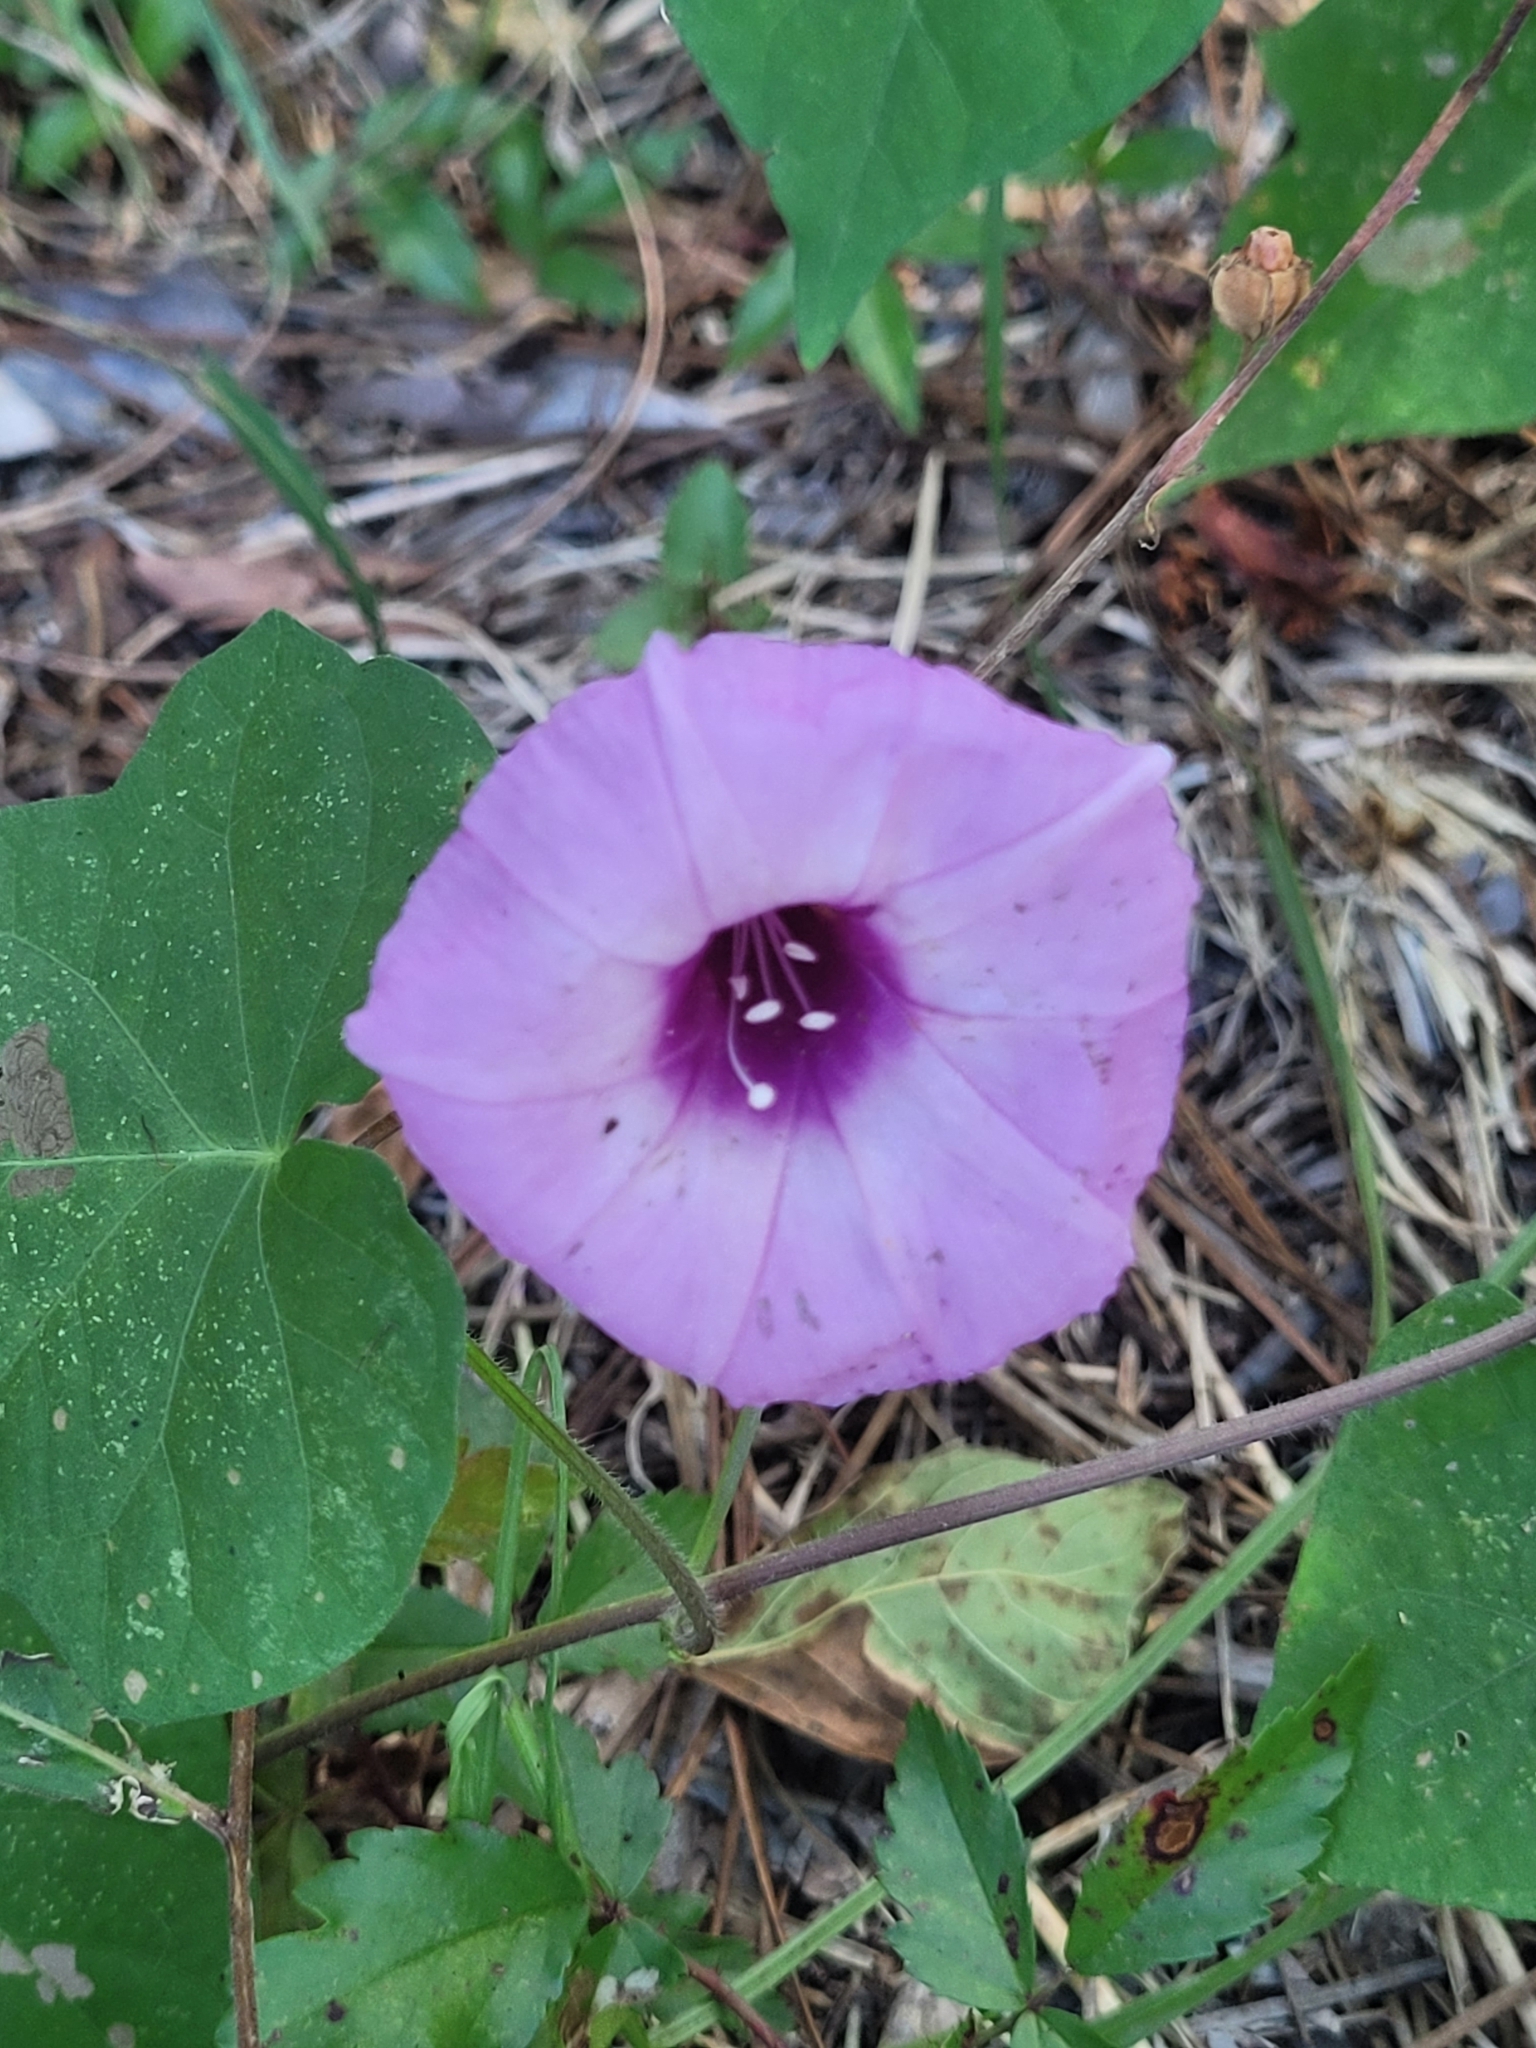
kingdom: Plantae
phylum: Tracheophyta
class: Magnoliopsida
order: Solanales
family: Convolvulaceae
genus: Ipomoea
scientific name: Ipomoea cordatotriloba
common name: Cotton morning glory
